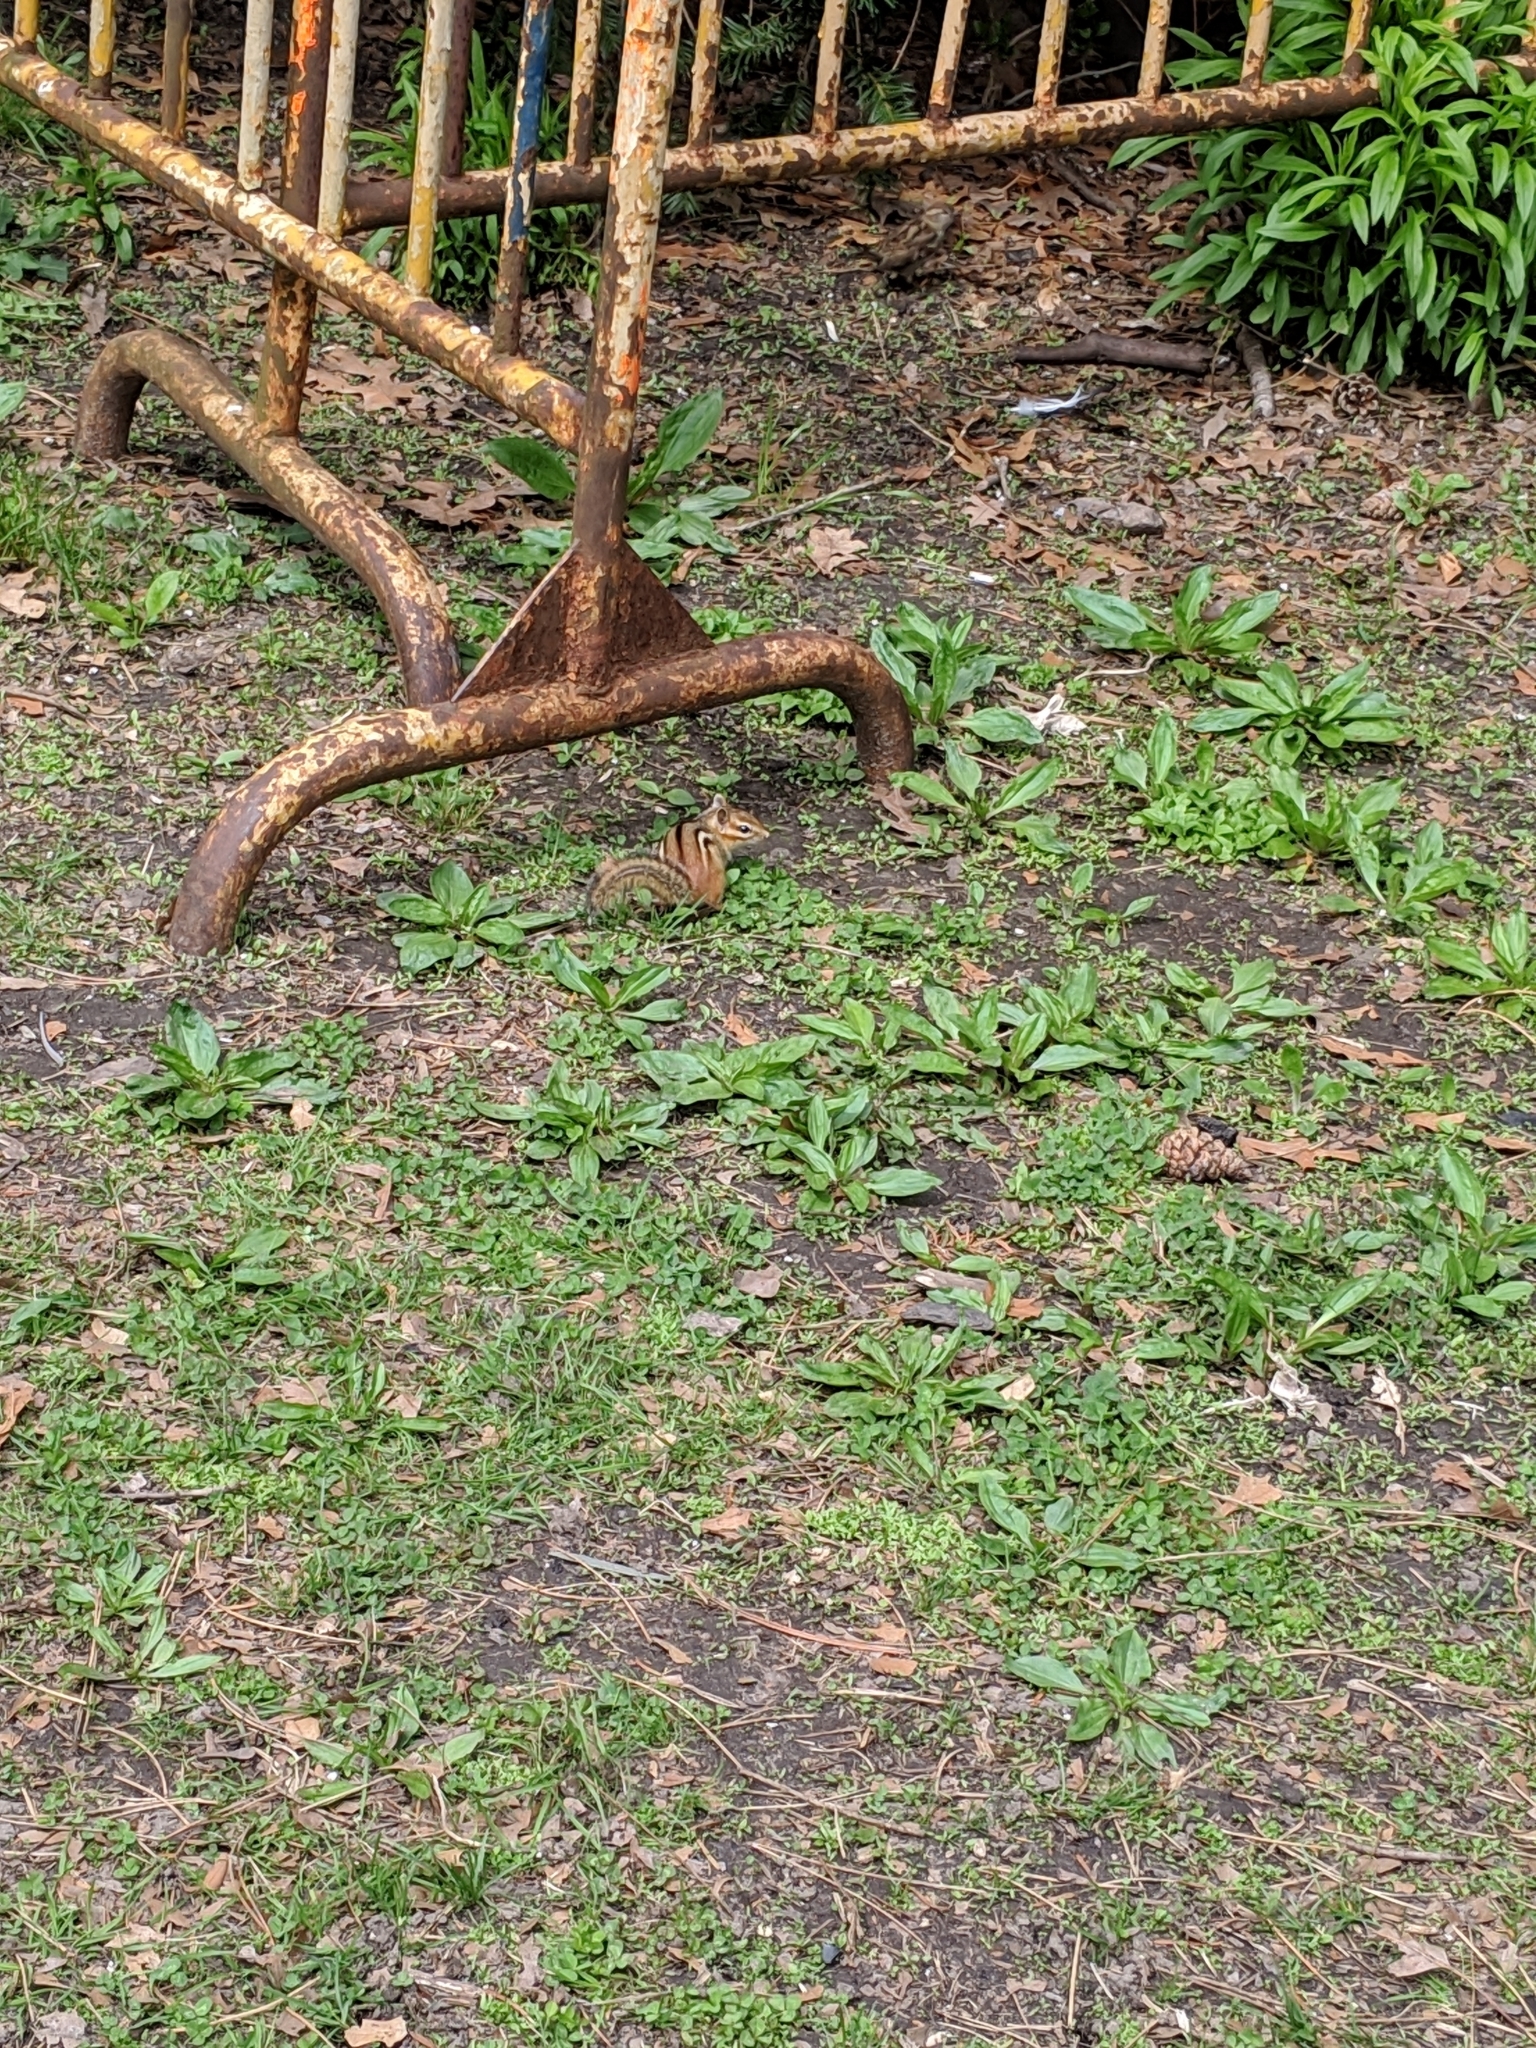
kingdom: Animalia
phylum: Chordata
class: Mammalia
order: Rodentia
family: Sciuridae
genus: Tamias
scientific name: Tamias striatus
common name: Eastern chipmunk
